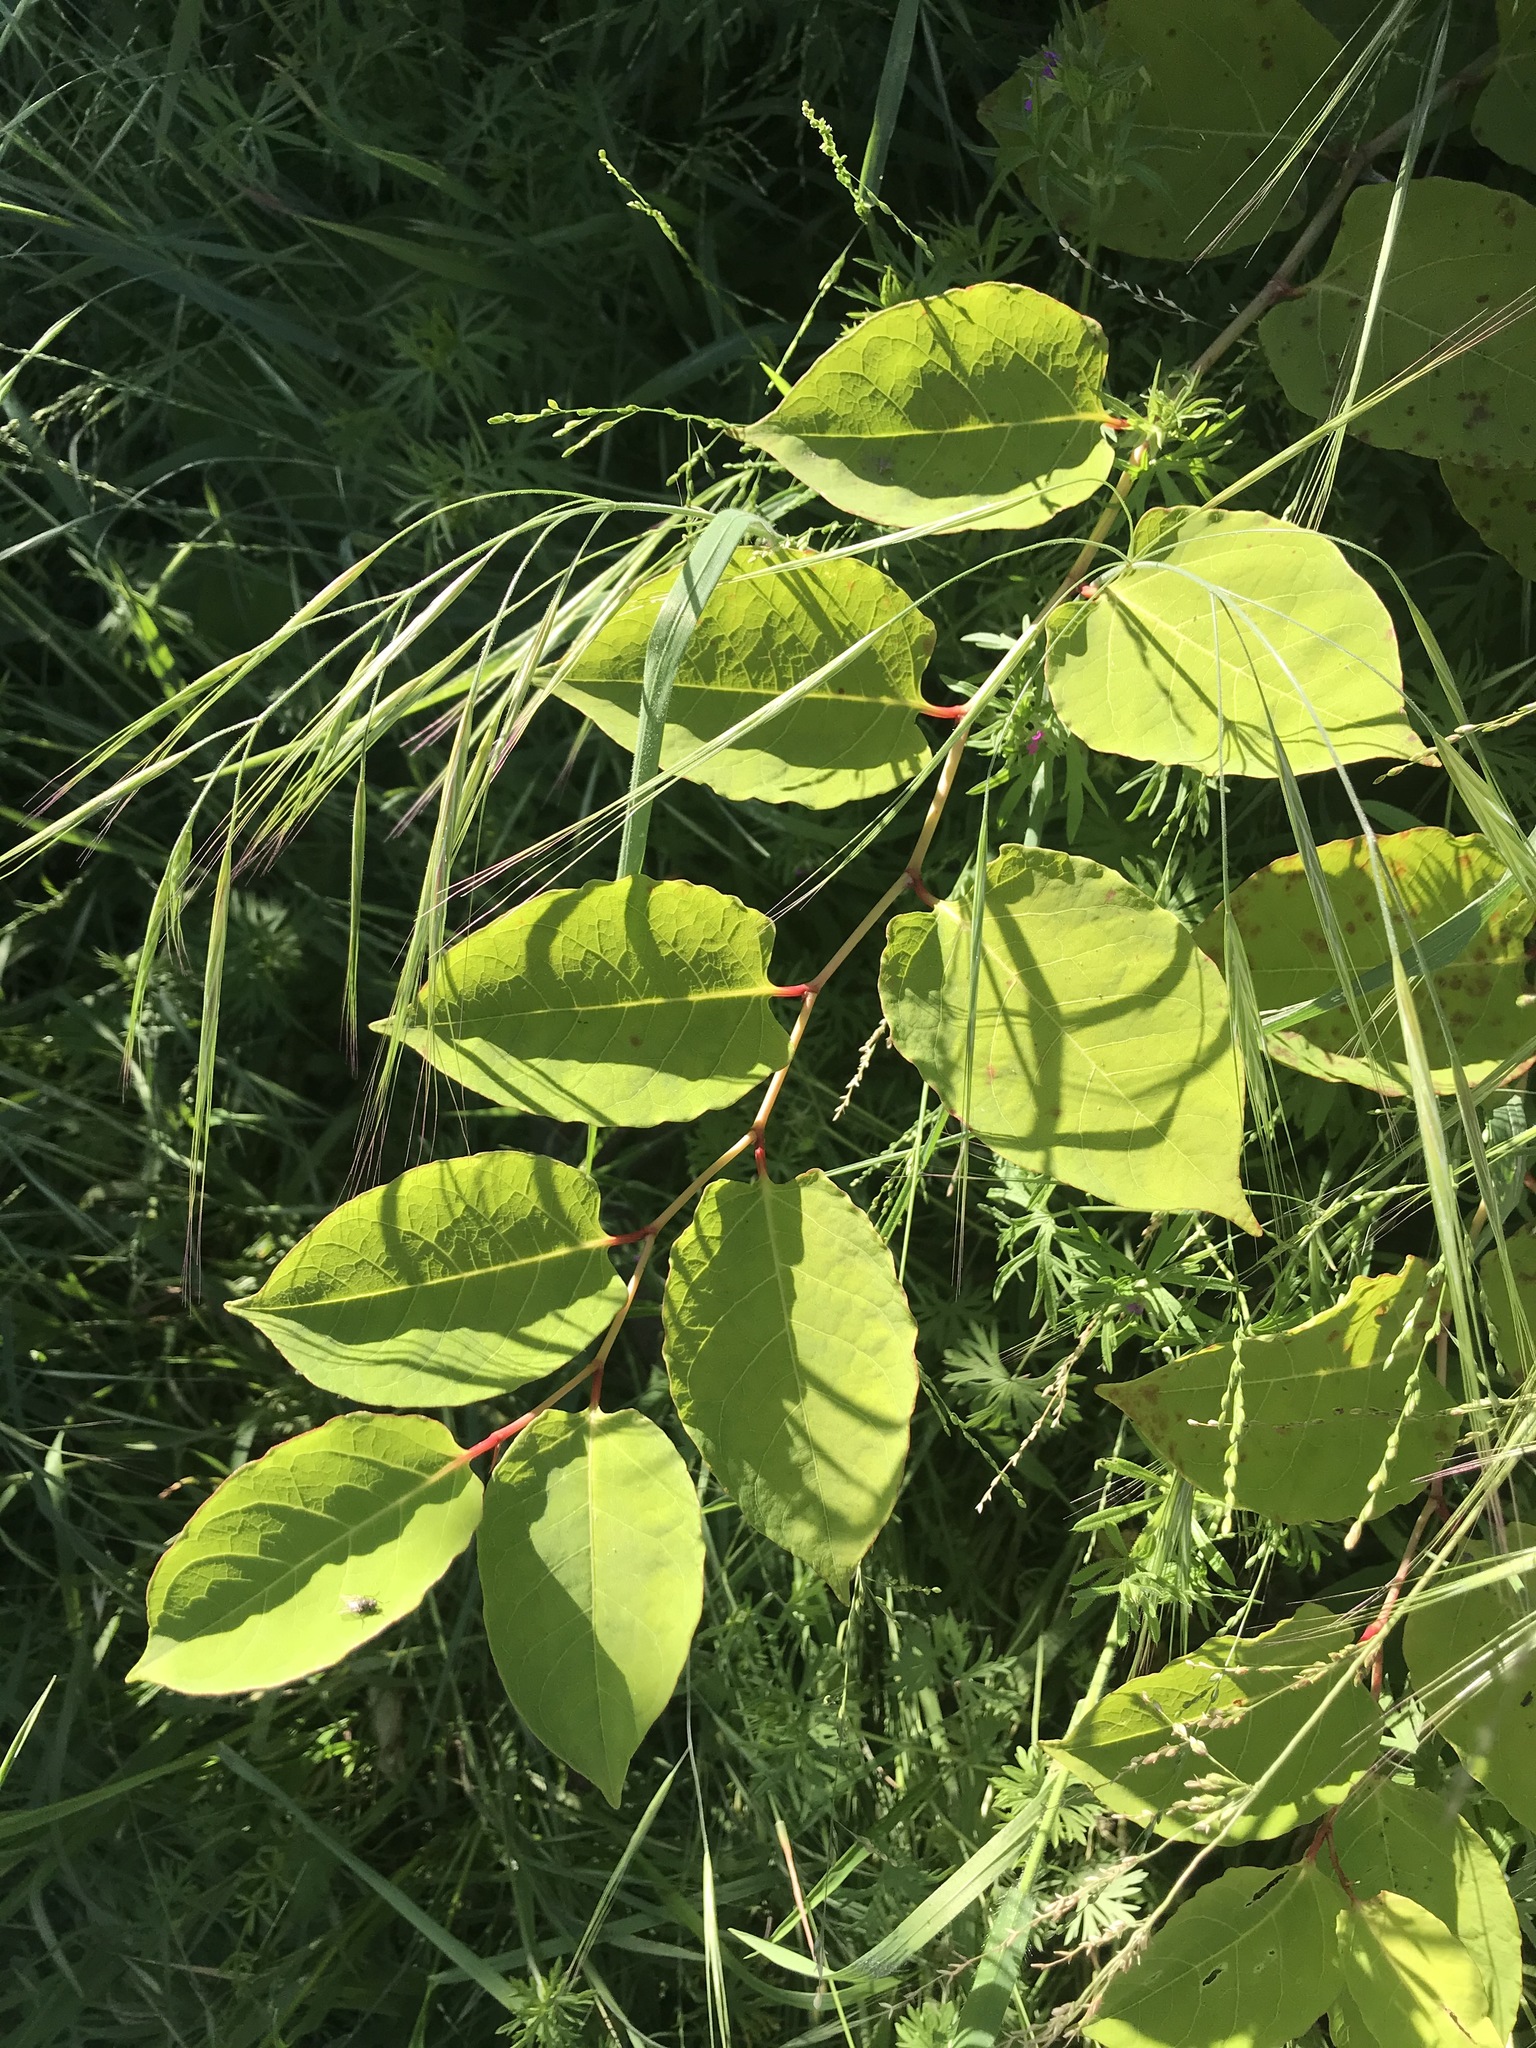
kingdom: Plantae
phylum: Tracheophyta
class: Magnoliopsida
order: Caryophyllales
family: Polygonaceae
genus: Reynoutria
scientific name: Reynoutria japonica
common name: Japanese knotweed
